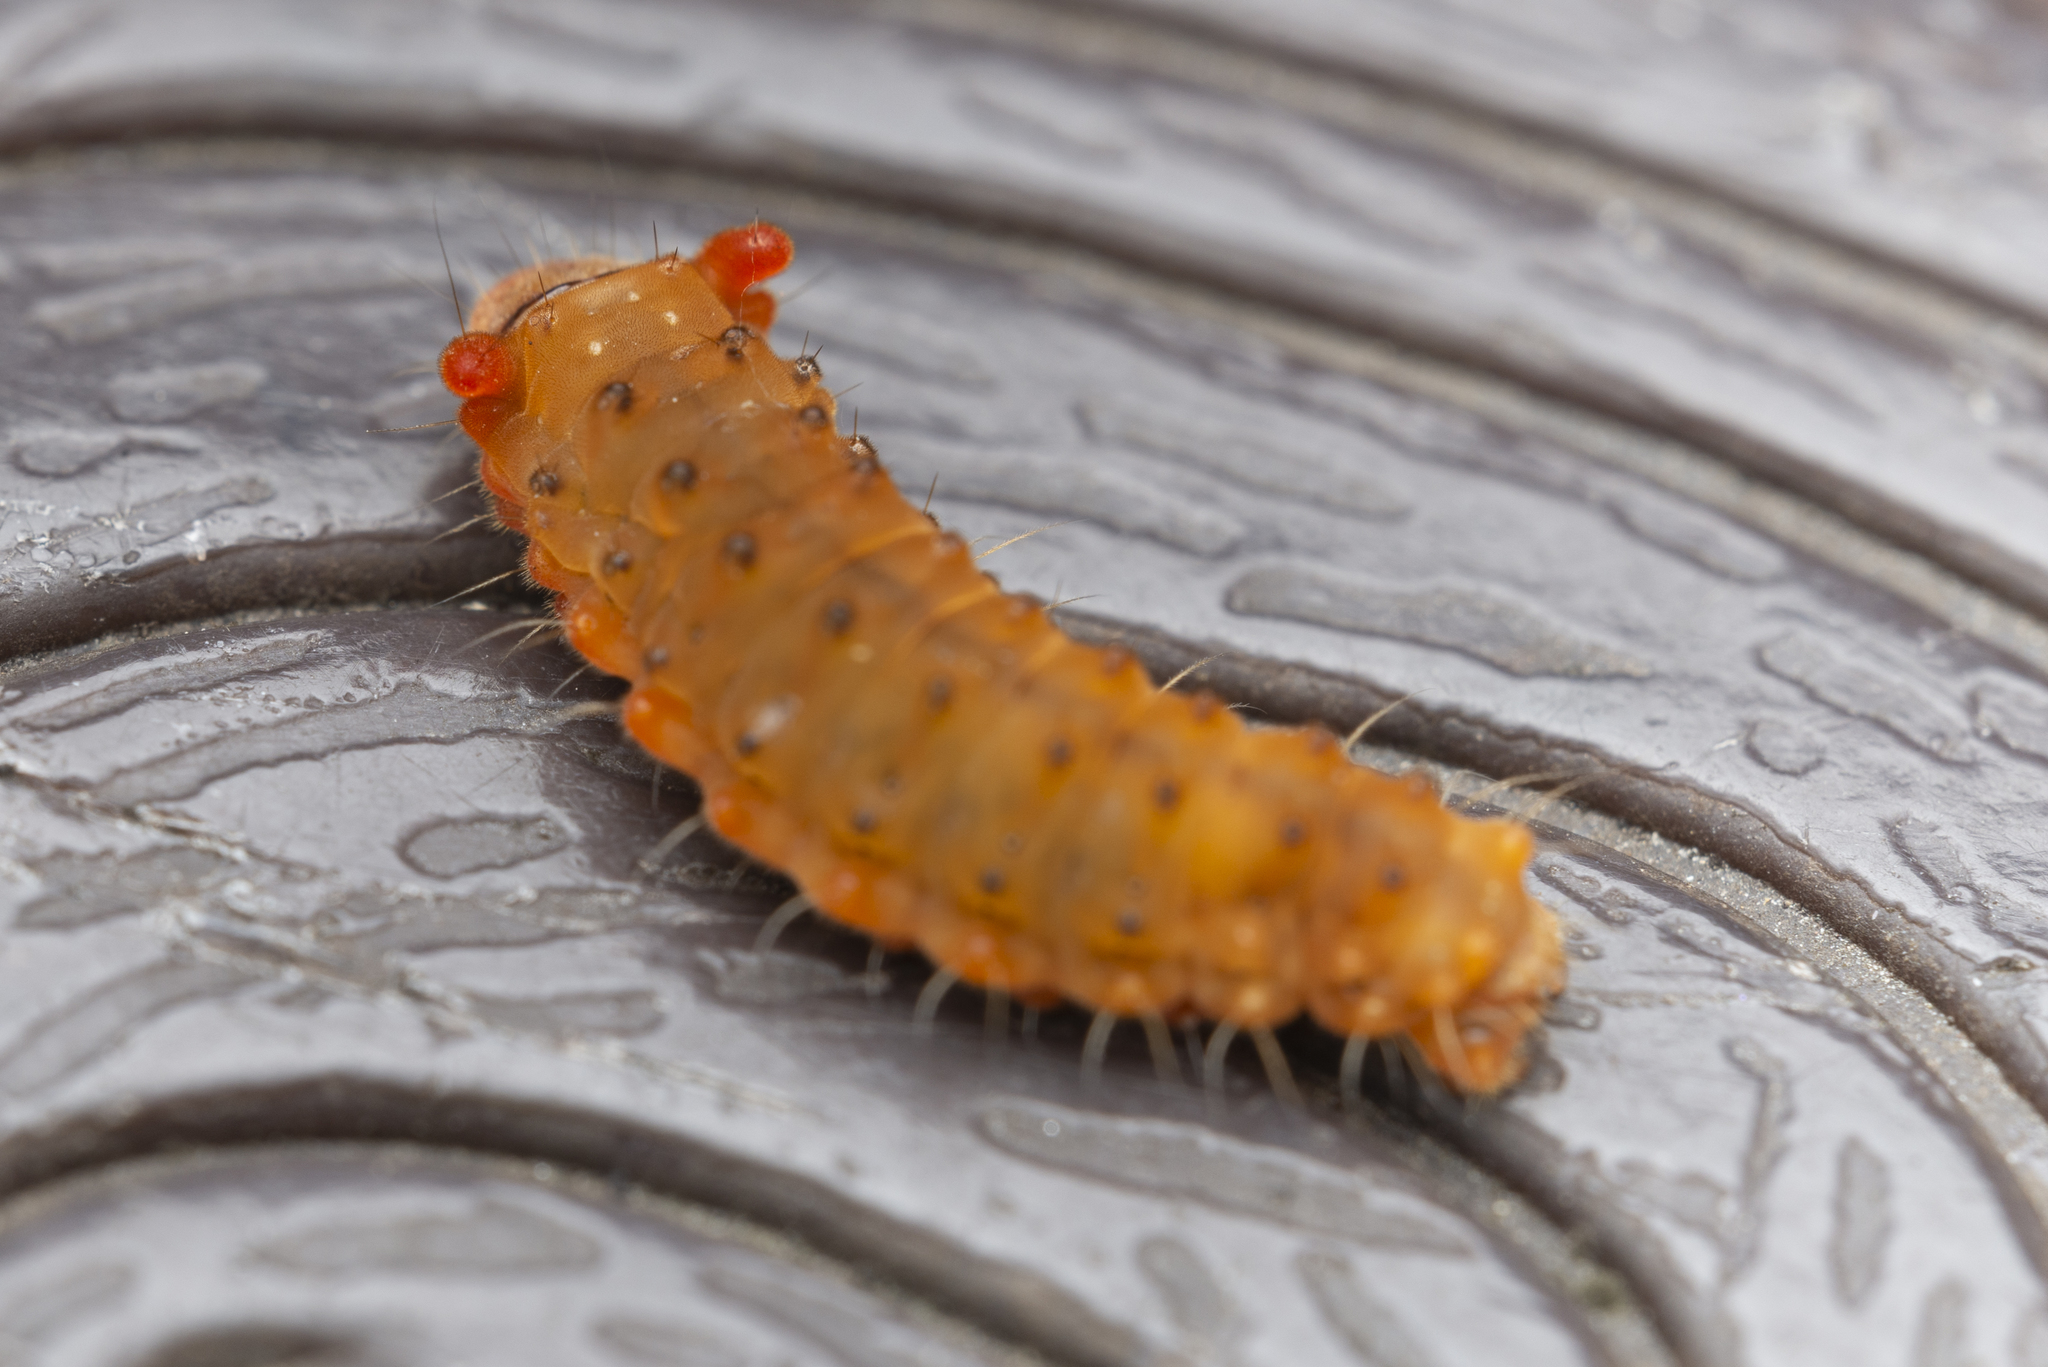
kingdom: Animalia
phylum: Arthropoda
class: Insecta
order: Lepidoptera
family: Zygaenidae
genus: Trypanophora
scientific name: Trypanophora semihyalina
